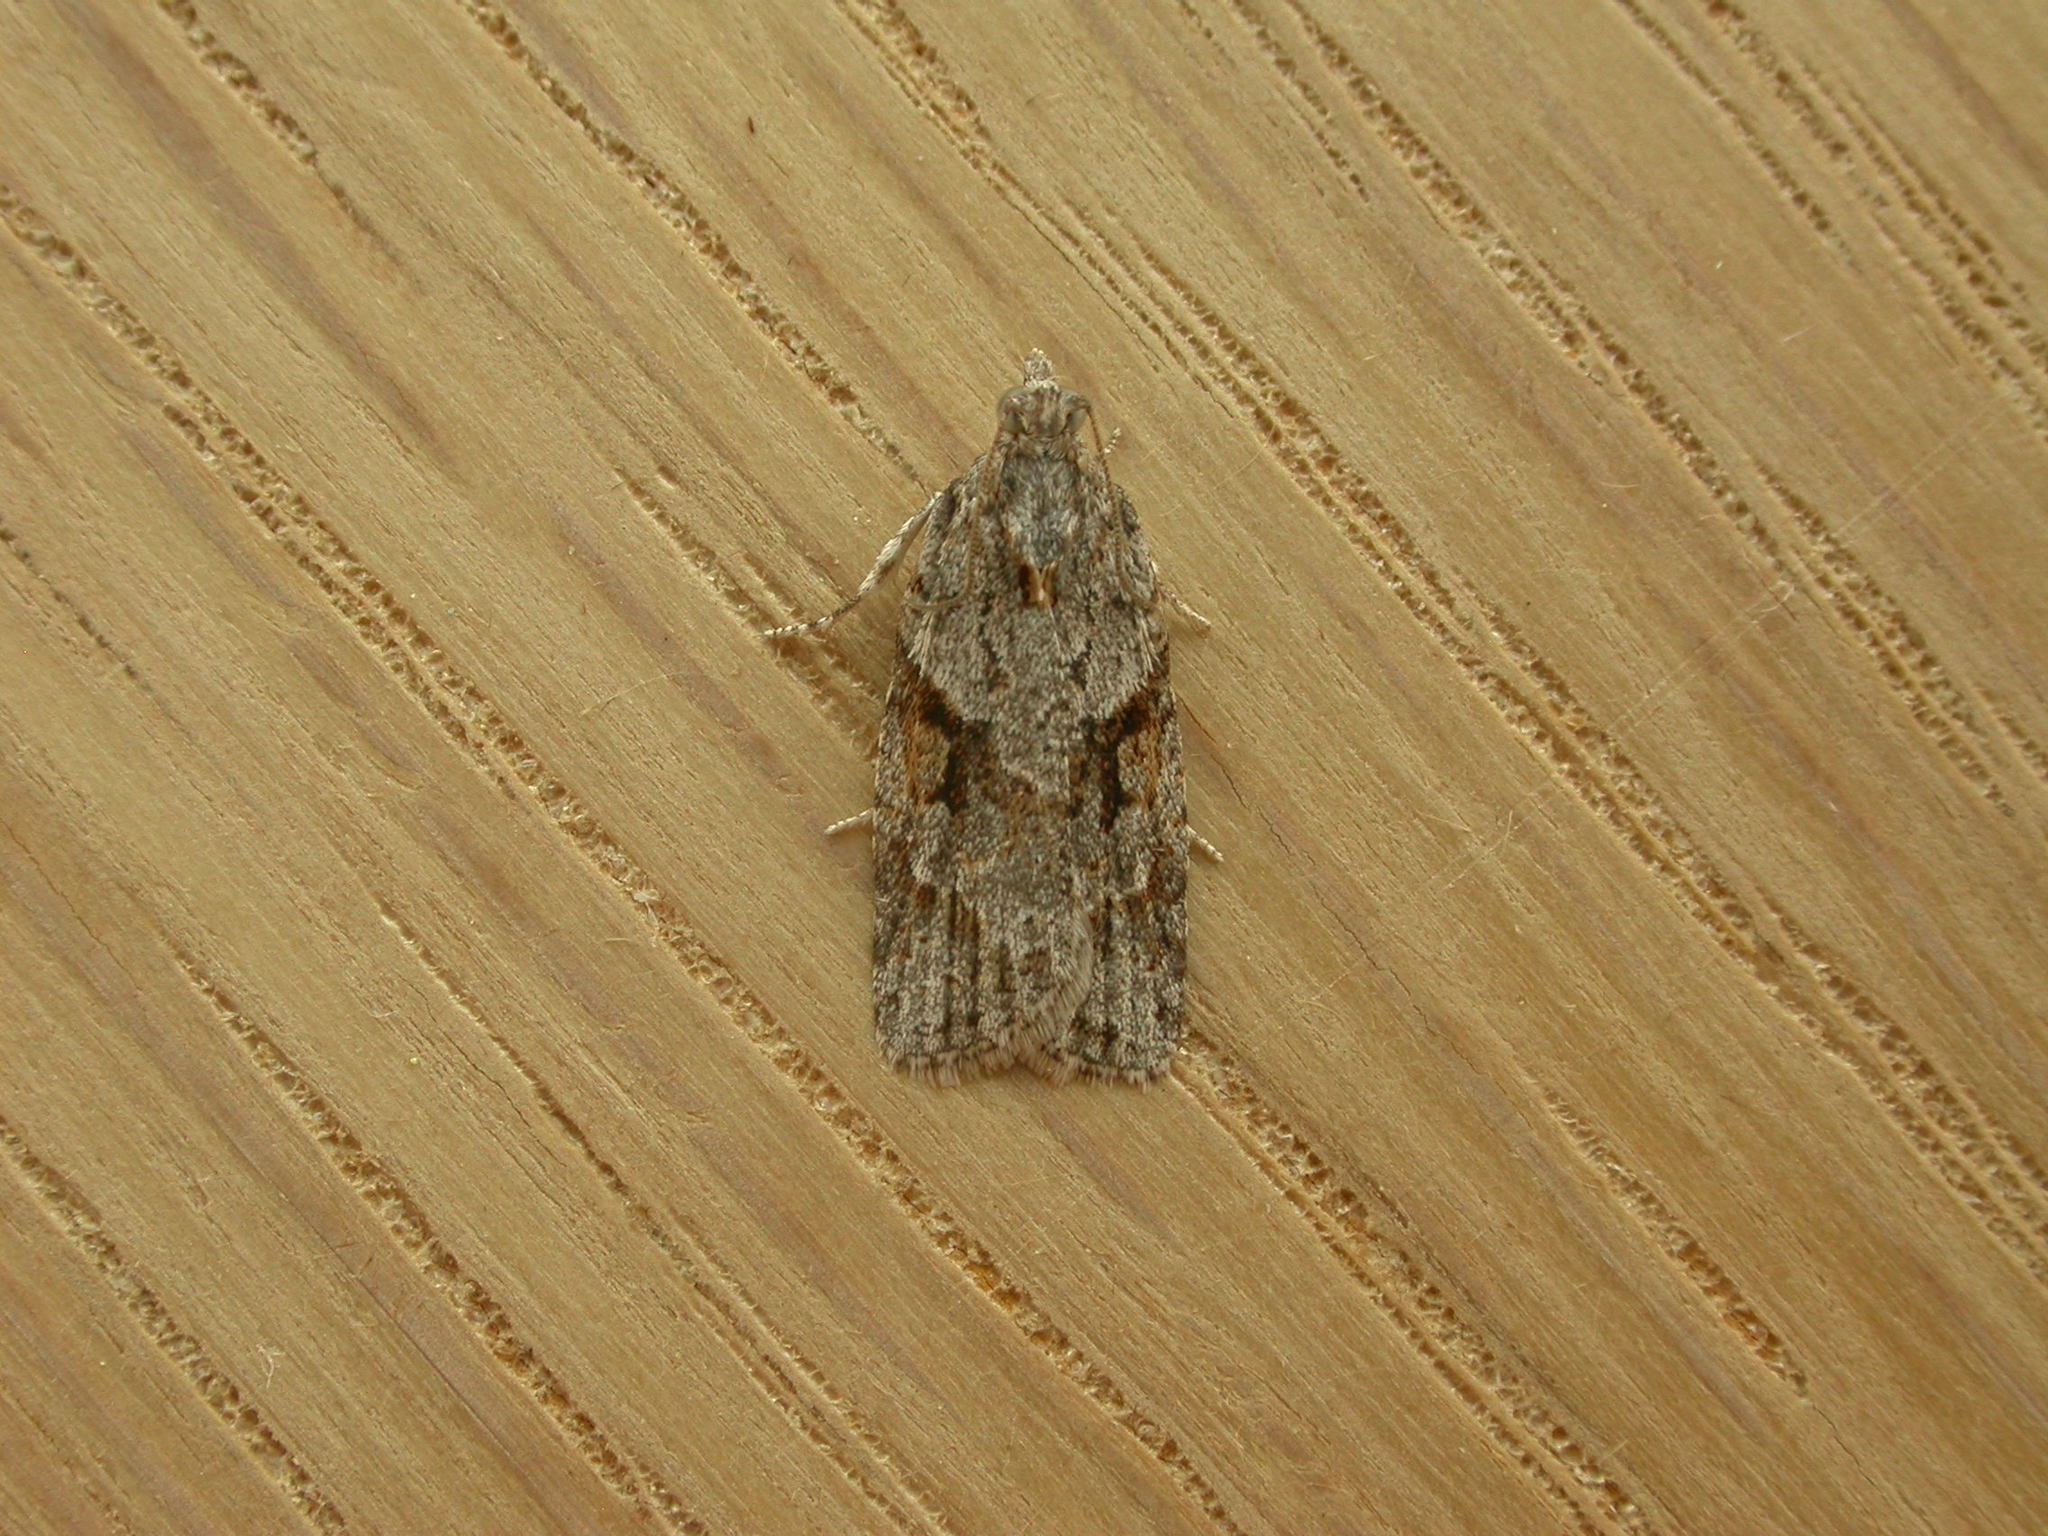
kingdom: Animalia
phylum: Arthropoda
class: Insecta
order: Lepidoptera
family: Tortricidae
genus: Acropolitis
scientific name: Acropolitis rudisana
